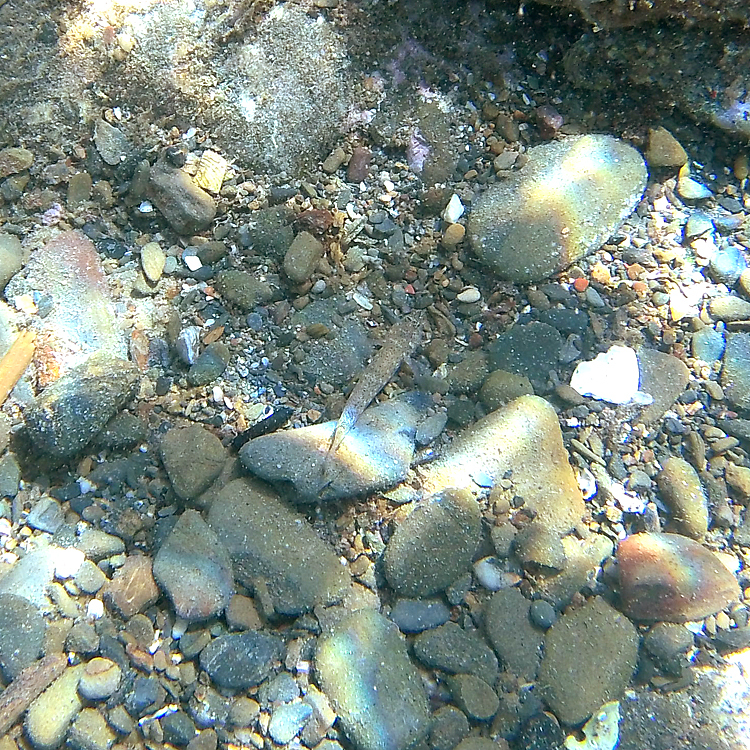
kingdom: Animalia
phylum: Chordata
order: Perciformes
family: Gobiidae
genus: Gobius
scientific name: Gobius incognitus
